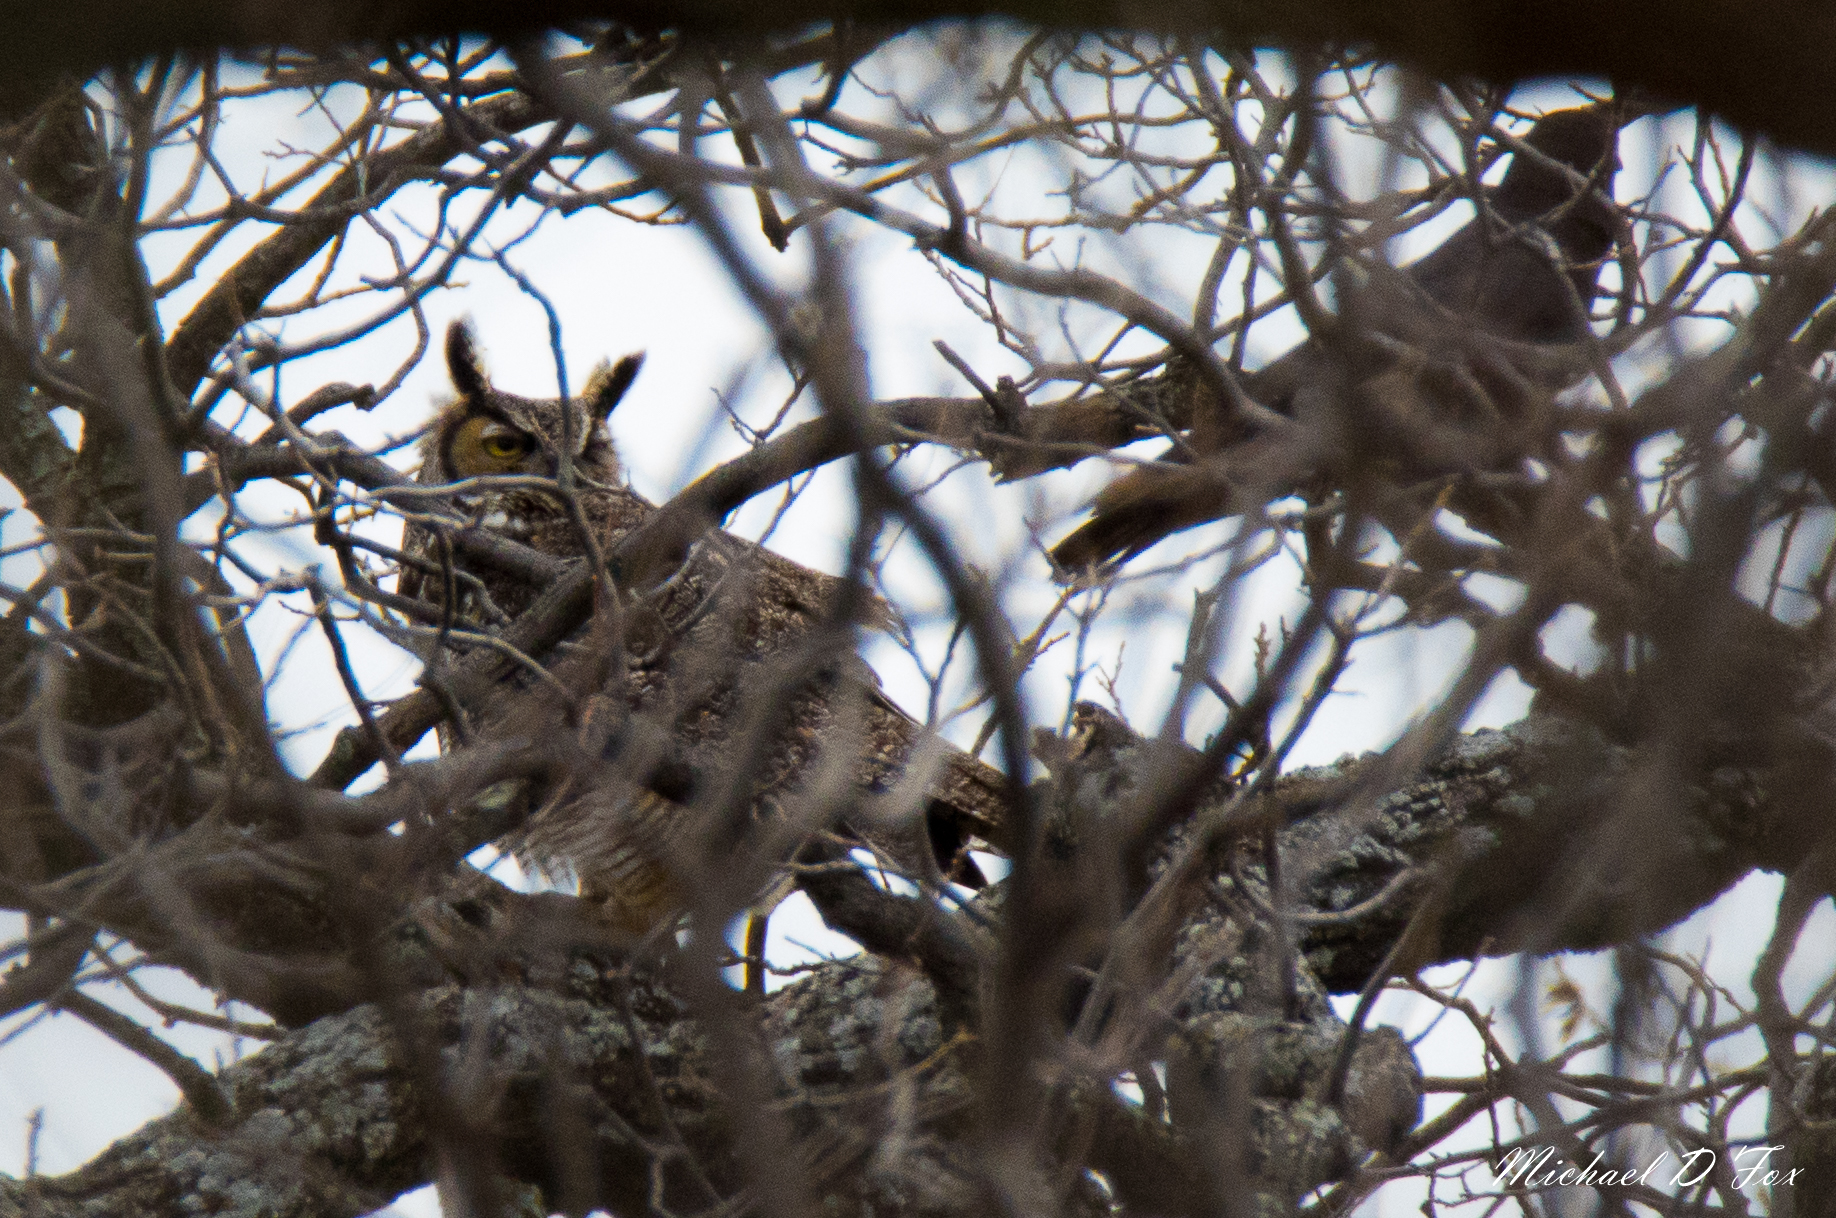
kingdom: Animalia
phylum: Chordata
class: Aves
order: Strigiformes
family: Strigidae
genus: Bubo
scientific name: Bubo virginianus
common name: Great horned owl
